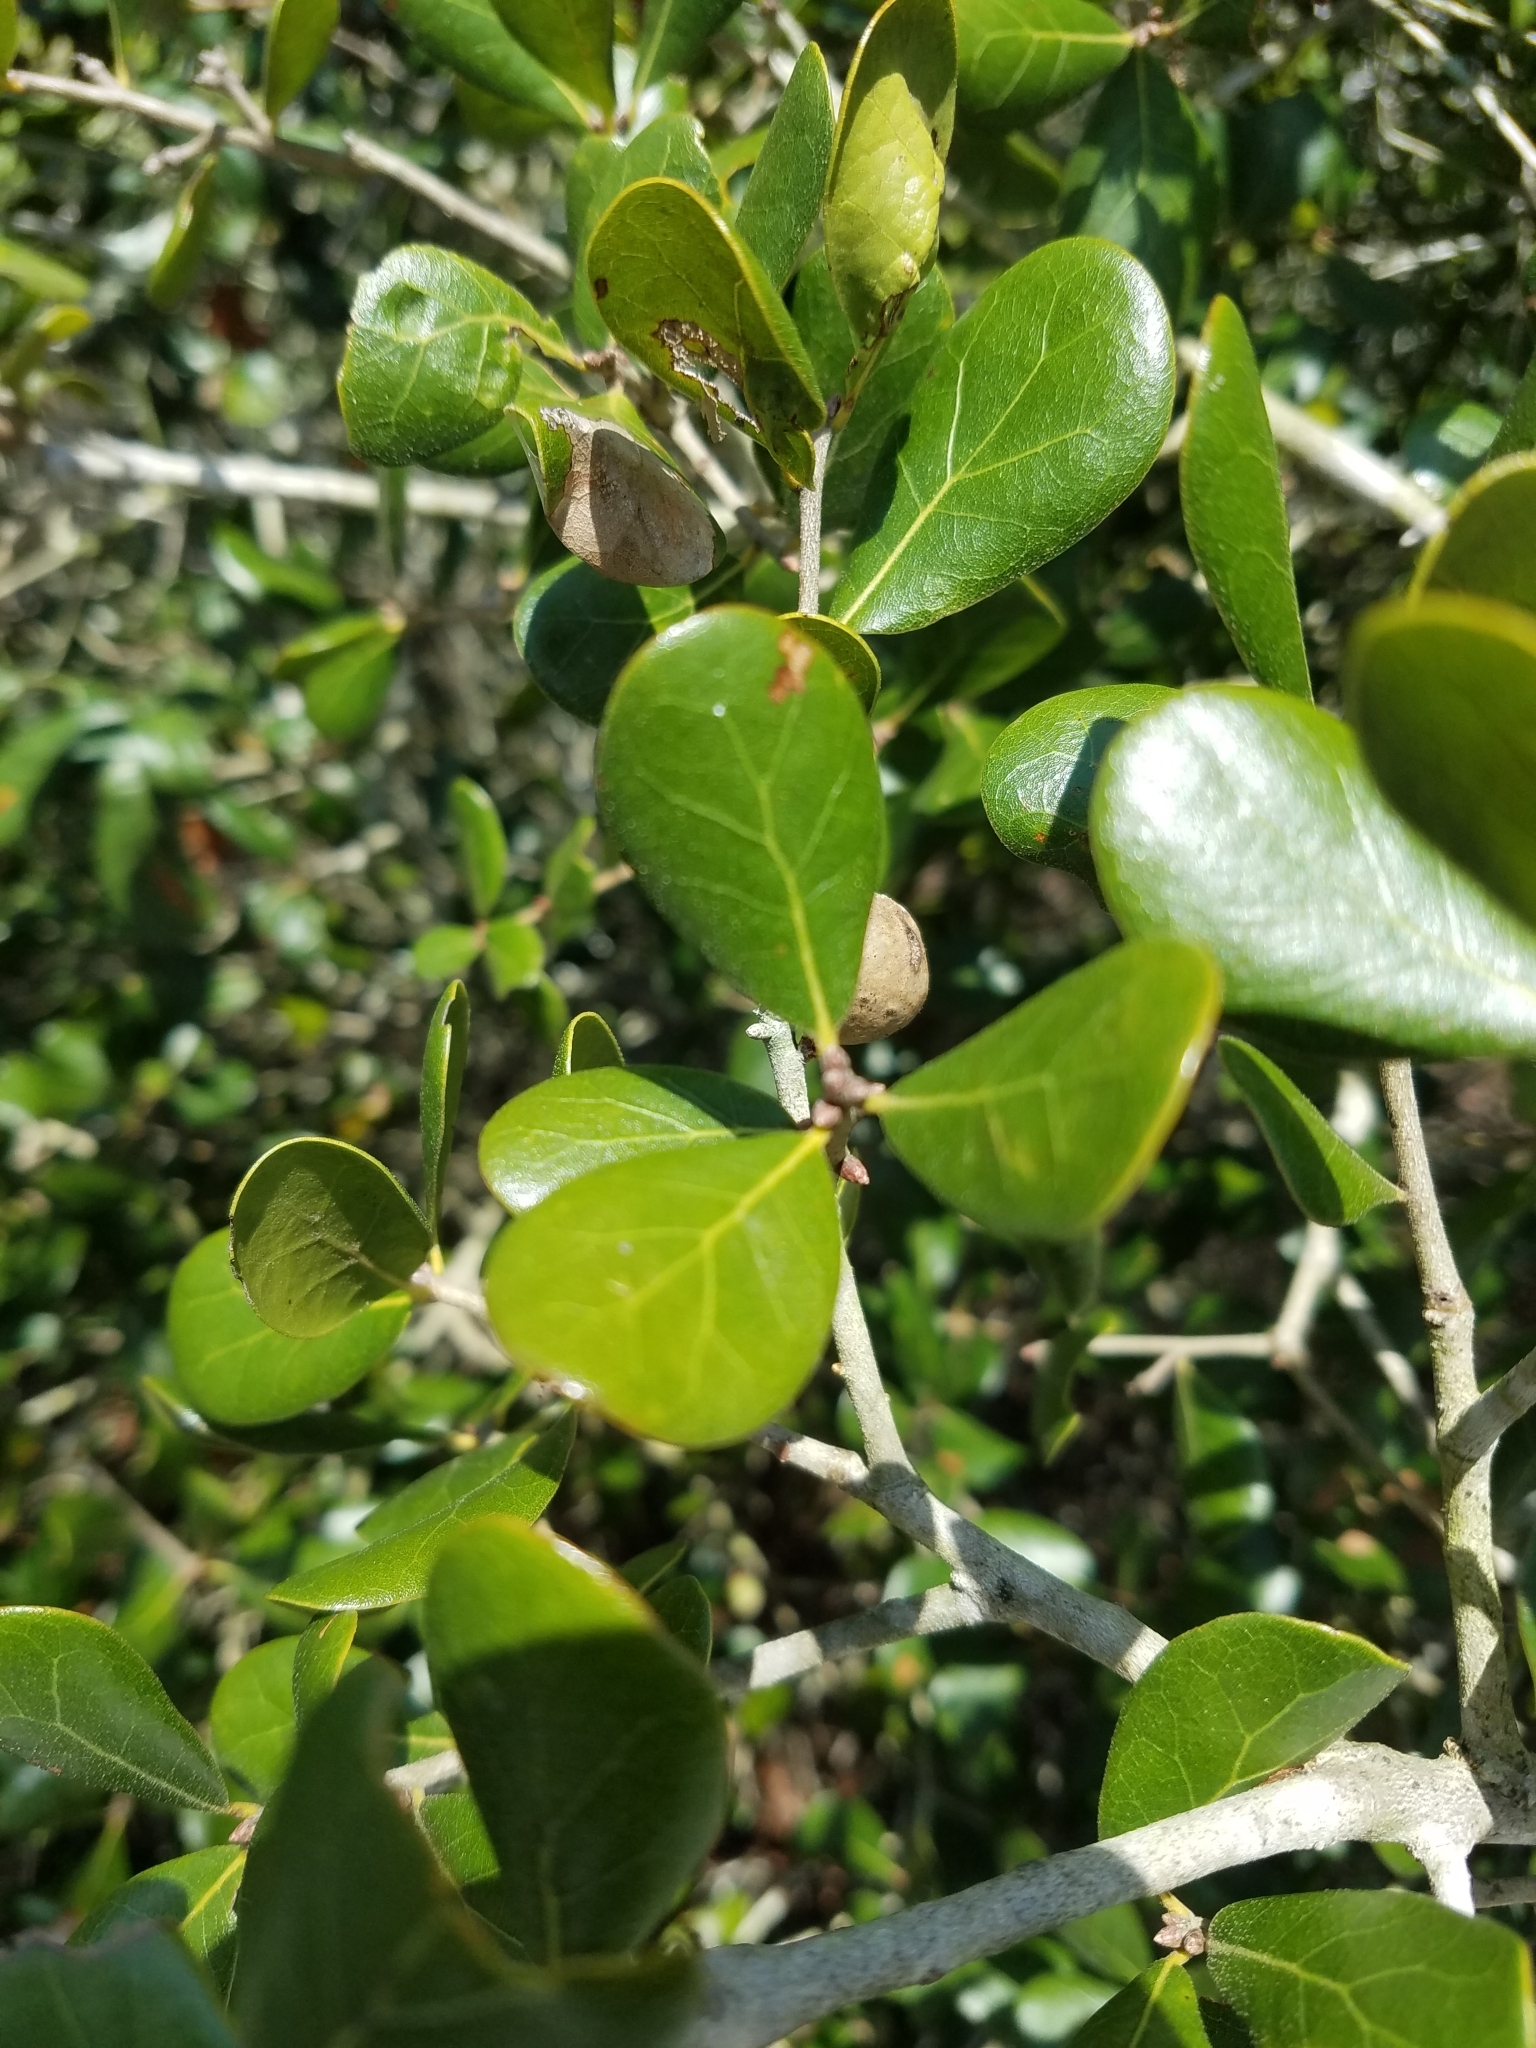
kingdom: Plantae
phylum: Tracheophyta
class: Magnoliopsida
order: Fagales
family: Fagaceae
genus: Quercus
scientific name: Quercus myrtifolia
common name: Myrtle oak
